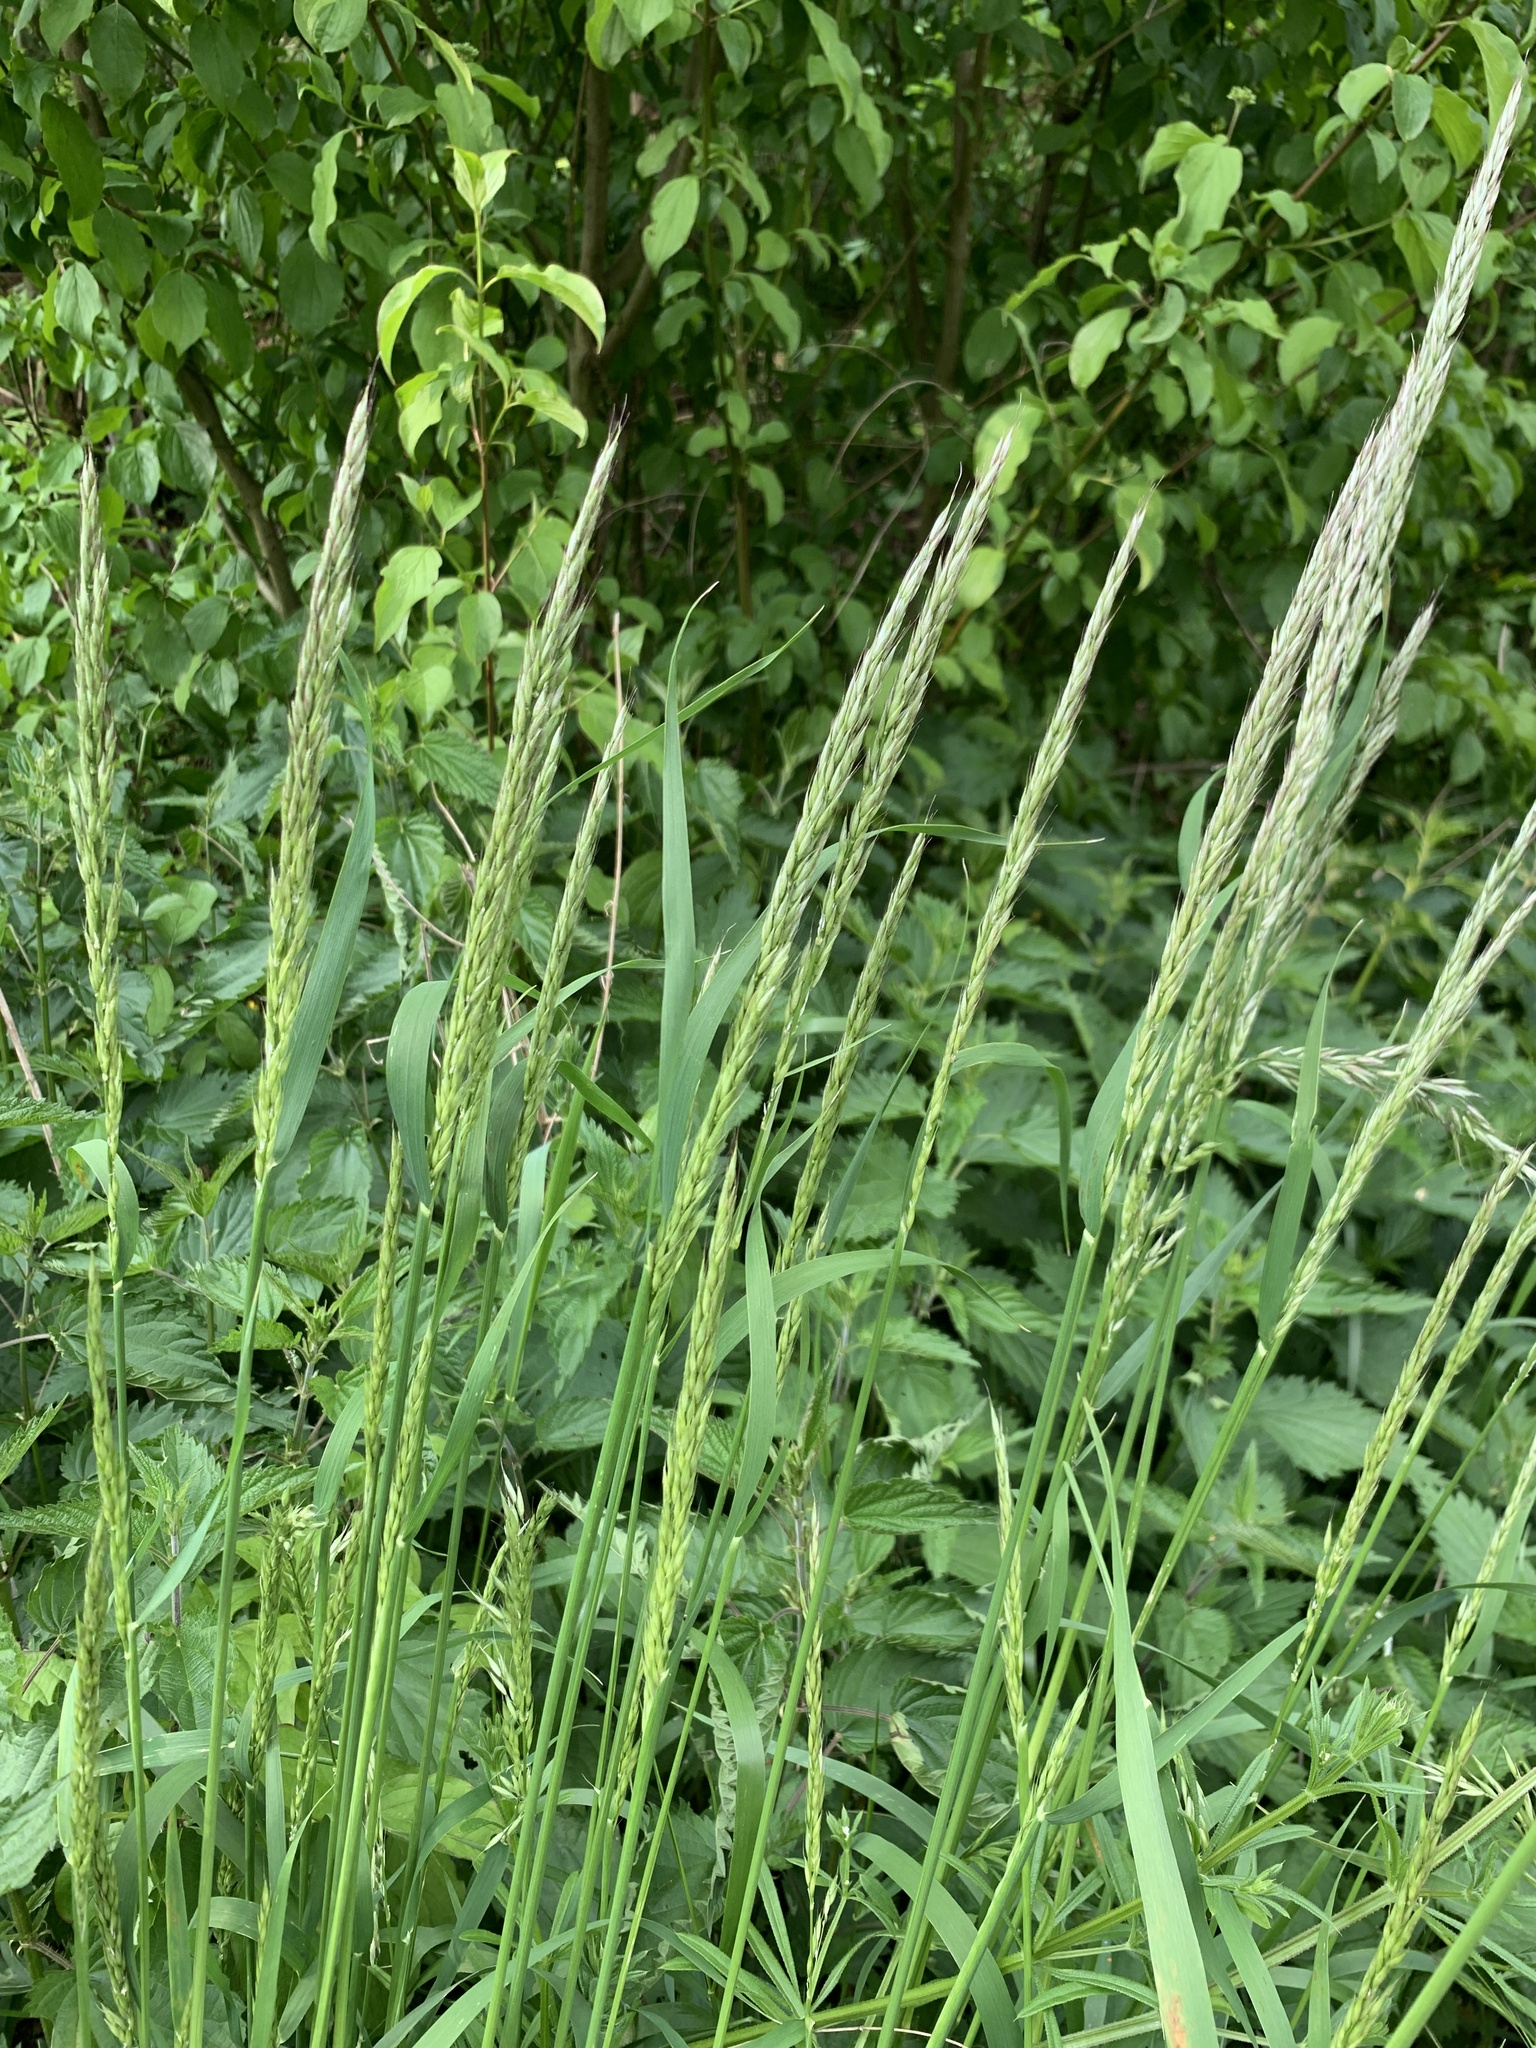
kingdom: Plantae
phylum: Tracheophyta
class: Liliopsida
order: Poales
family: Poaceae
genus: Arrhenatherum
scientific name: Arrhenatherum elatius
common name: Tall oatgrass
